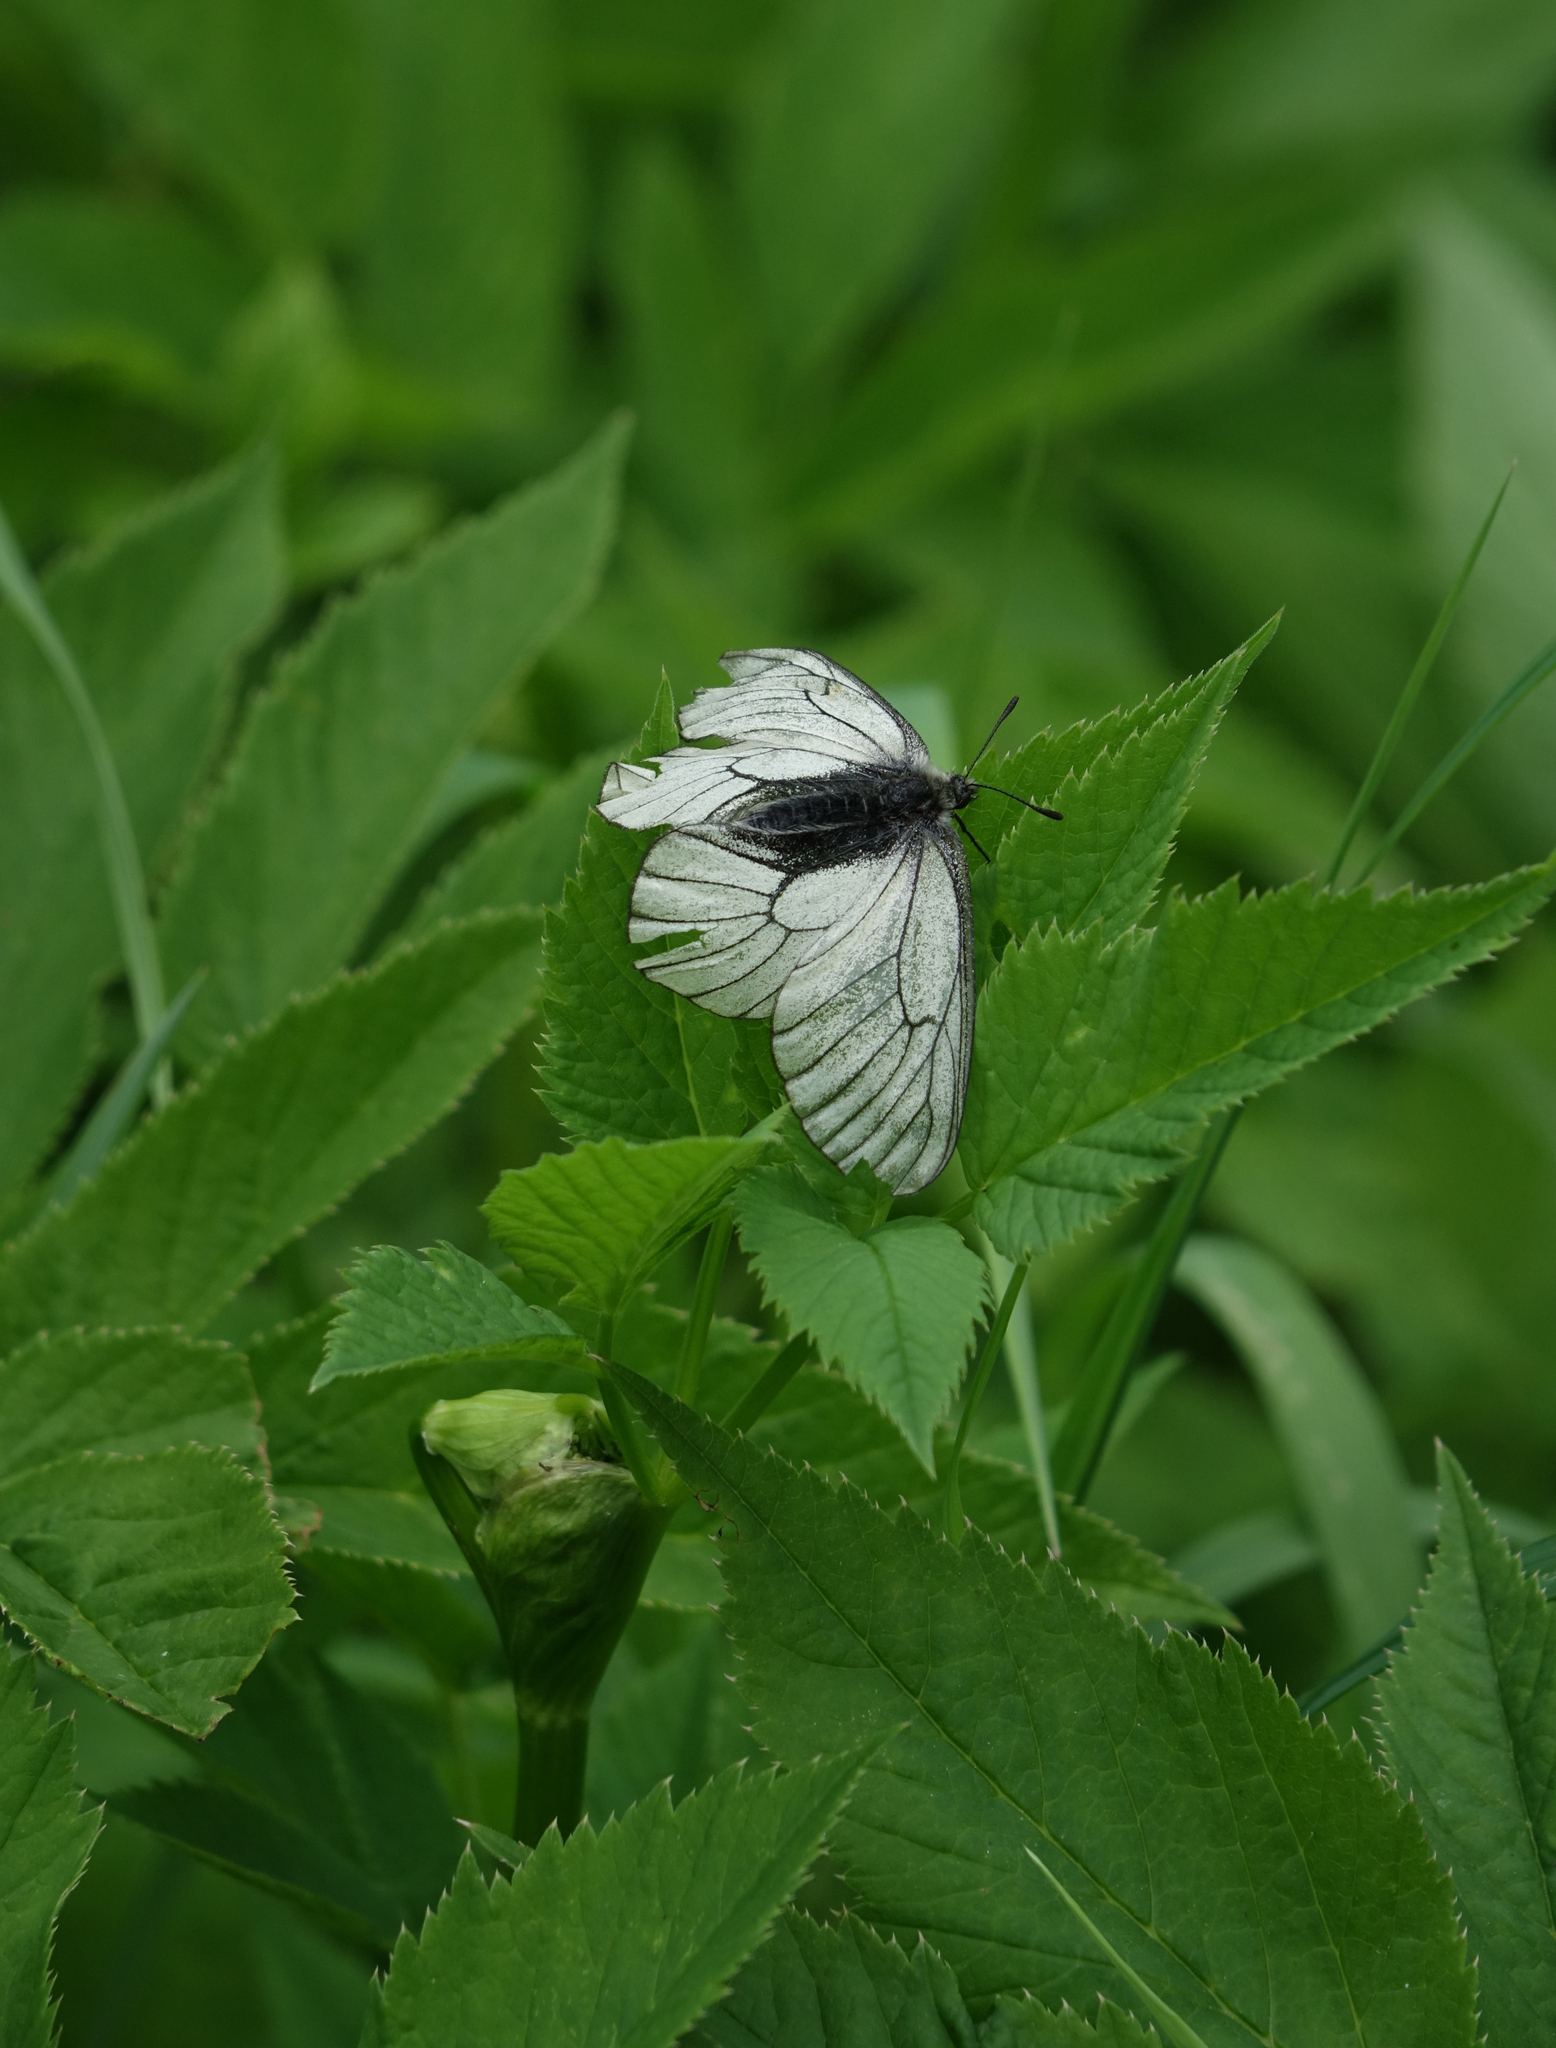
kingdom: Animalia
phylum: Arthropoda
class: Insecta
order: Lepidoptera
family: Papilionidae
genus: Parnassius
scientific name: Parnassius stubbendorfii
